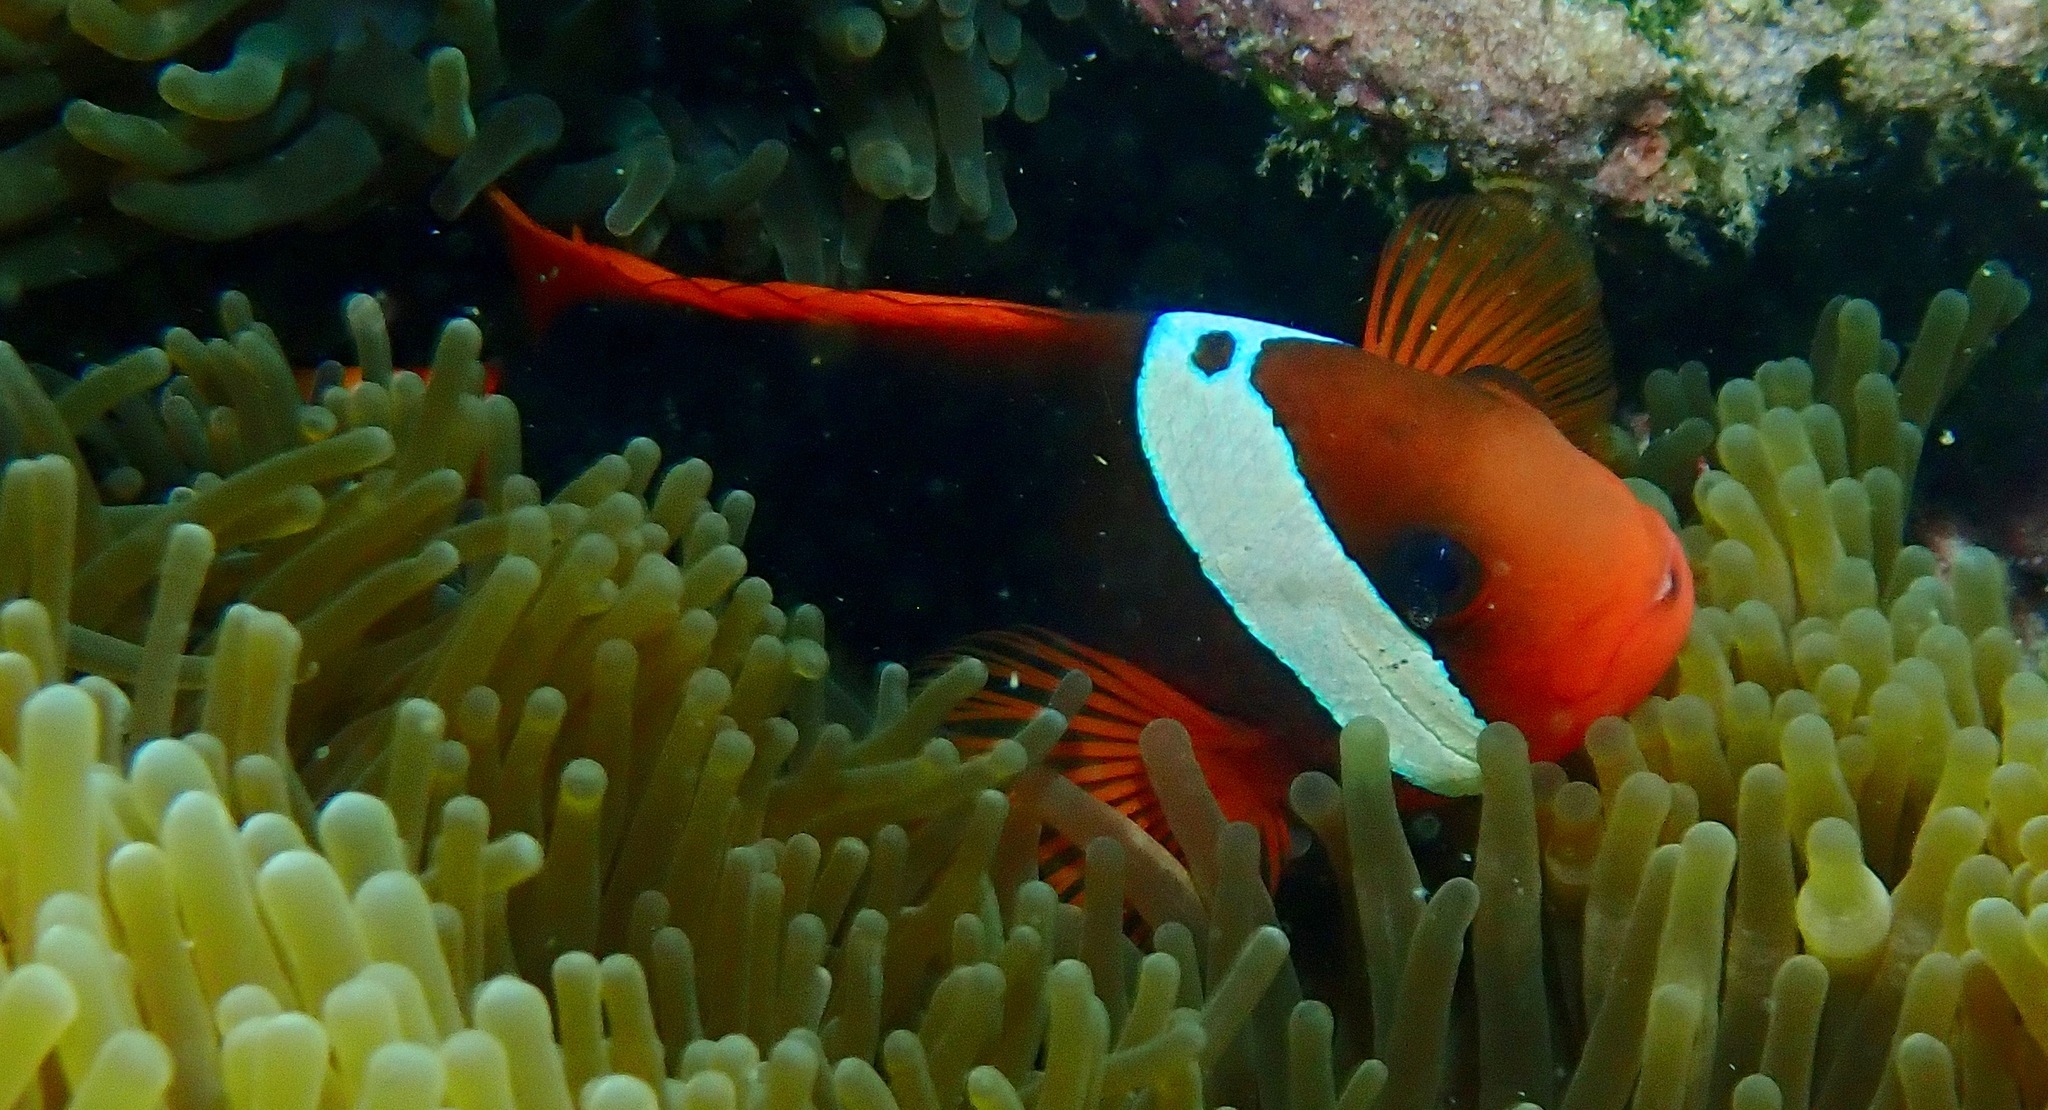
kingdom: Animalia
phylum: Chordata
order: Perciformes
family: Pomacentridae
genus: Amphiprion
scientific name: Amphiprion melanopus
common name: Black anemonefish
